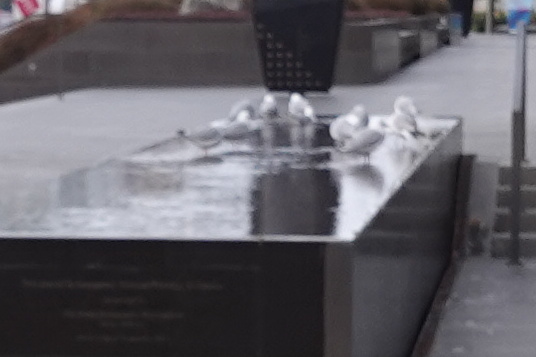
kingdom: Animalia
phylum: Chordata
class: Aves
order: Charadriiformes
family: Laridae
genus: Chroicocephalus
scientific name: Chroicocephalus novaehollandiae
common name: Silver gull
